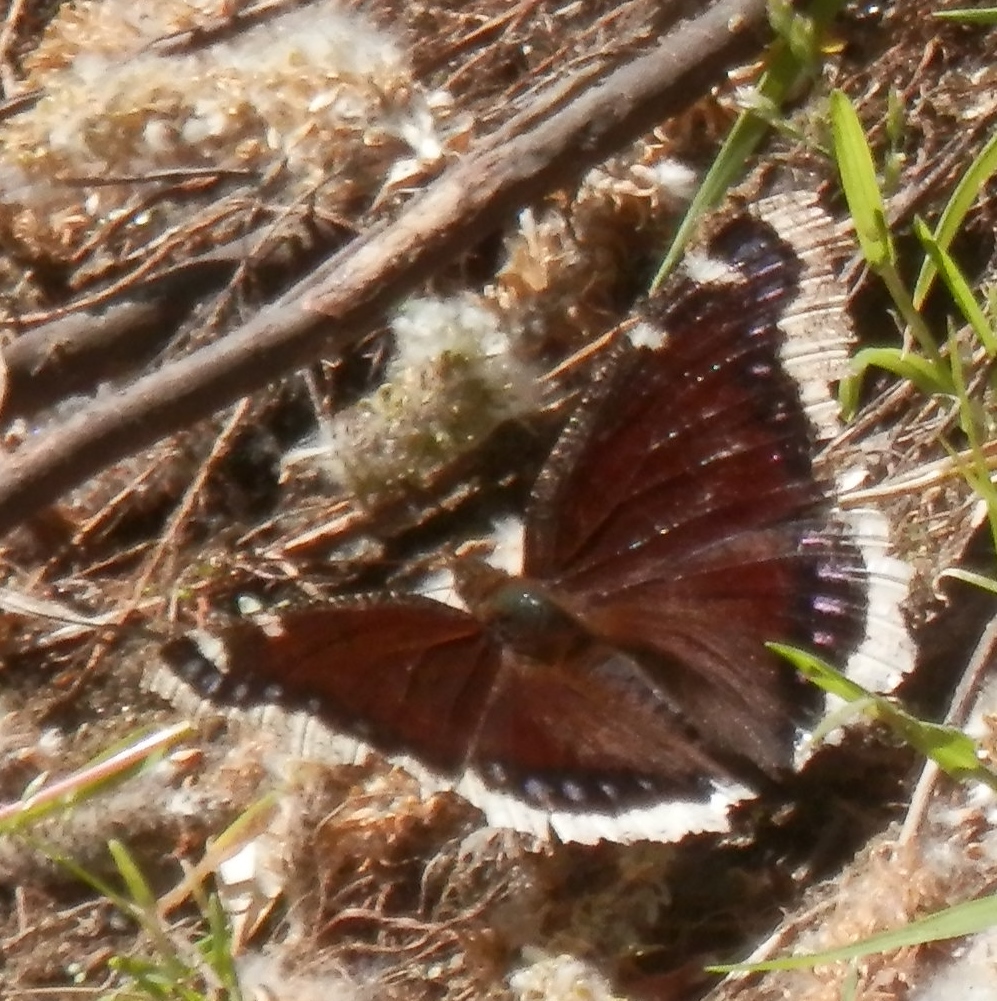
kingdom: Animalia
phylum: Arthropoda
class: Insecta
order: Lepidoptera
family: Nymphalidae
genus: Nymphalis
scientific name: Nymphalis antiopa
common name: Camberwell beauty
